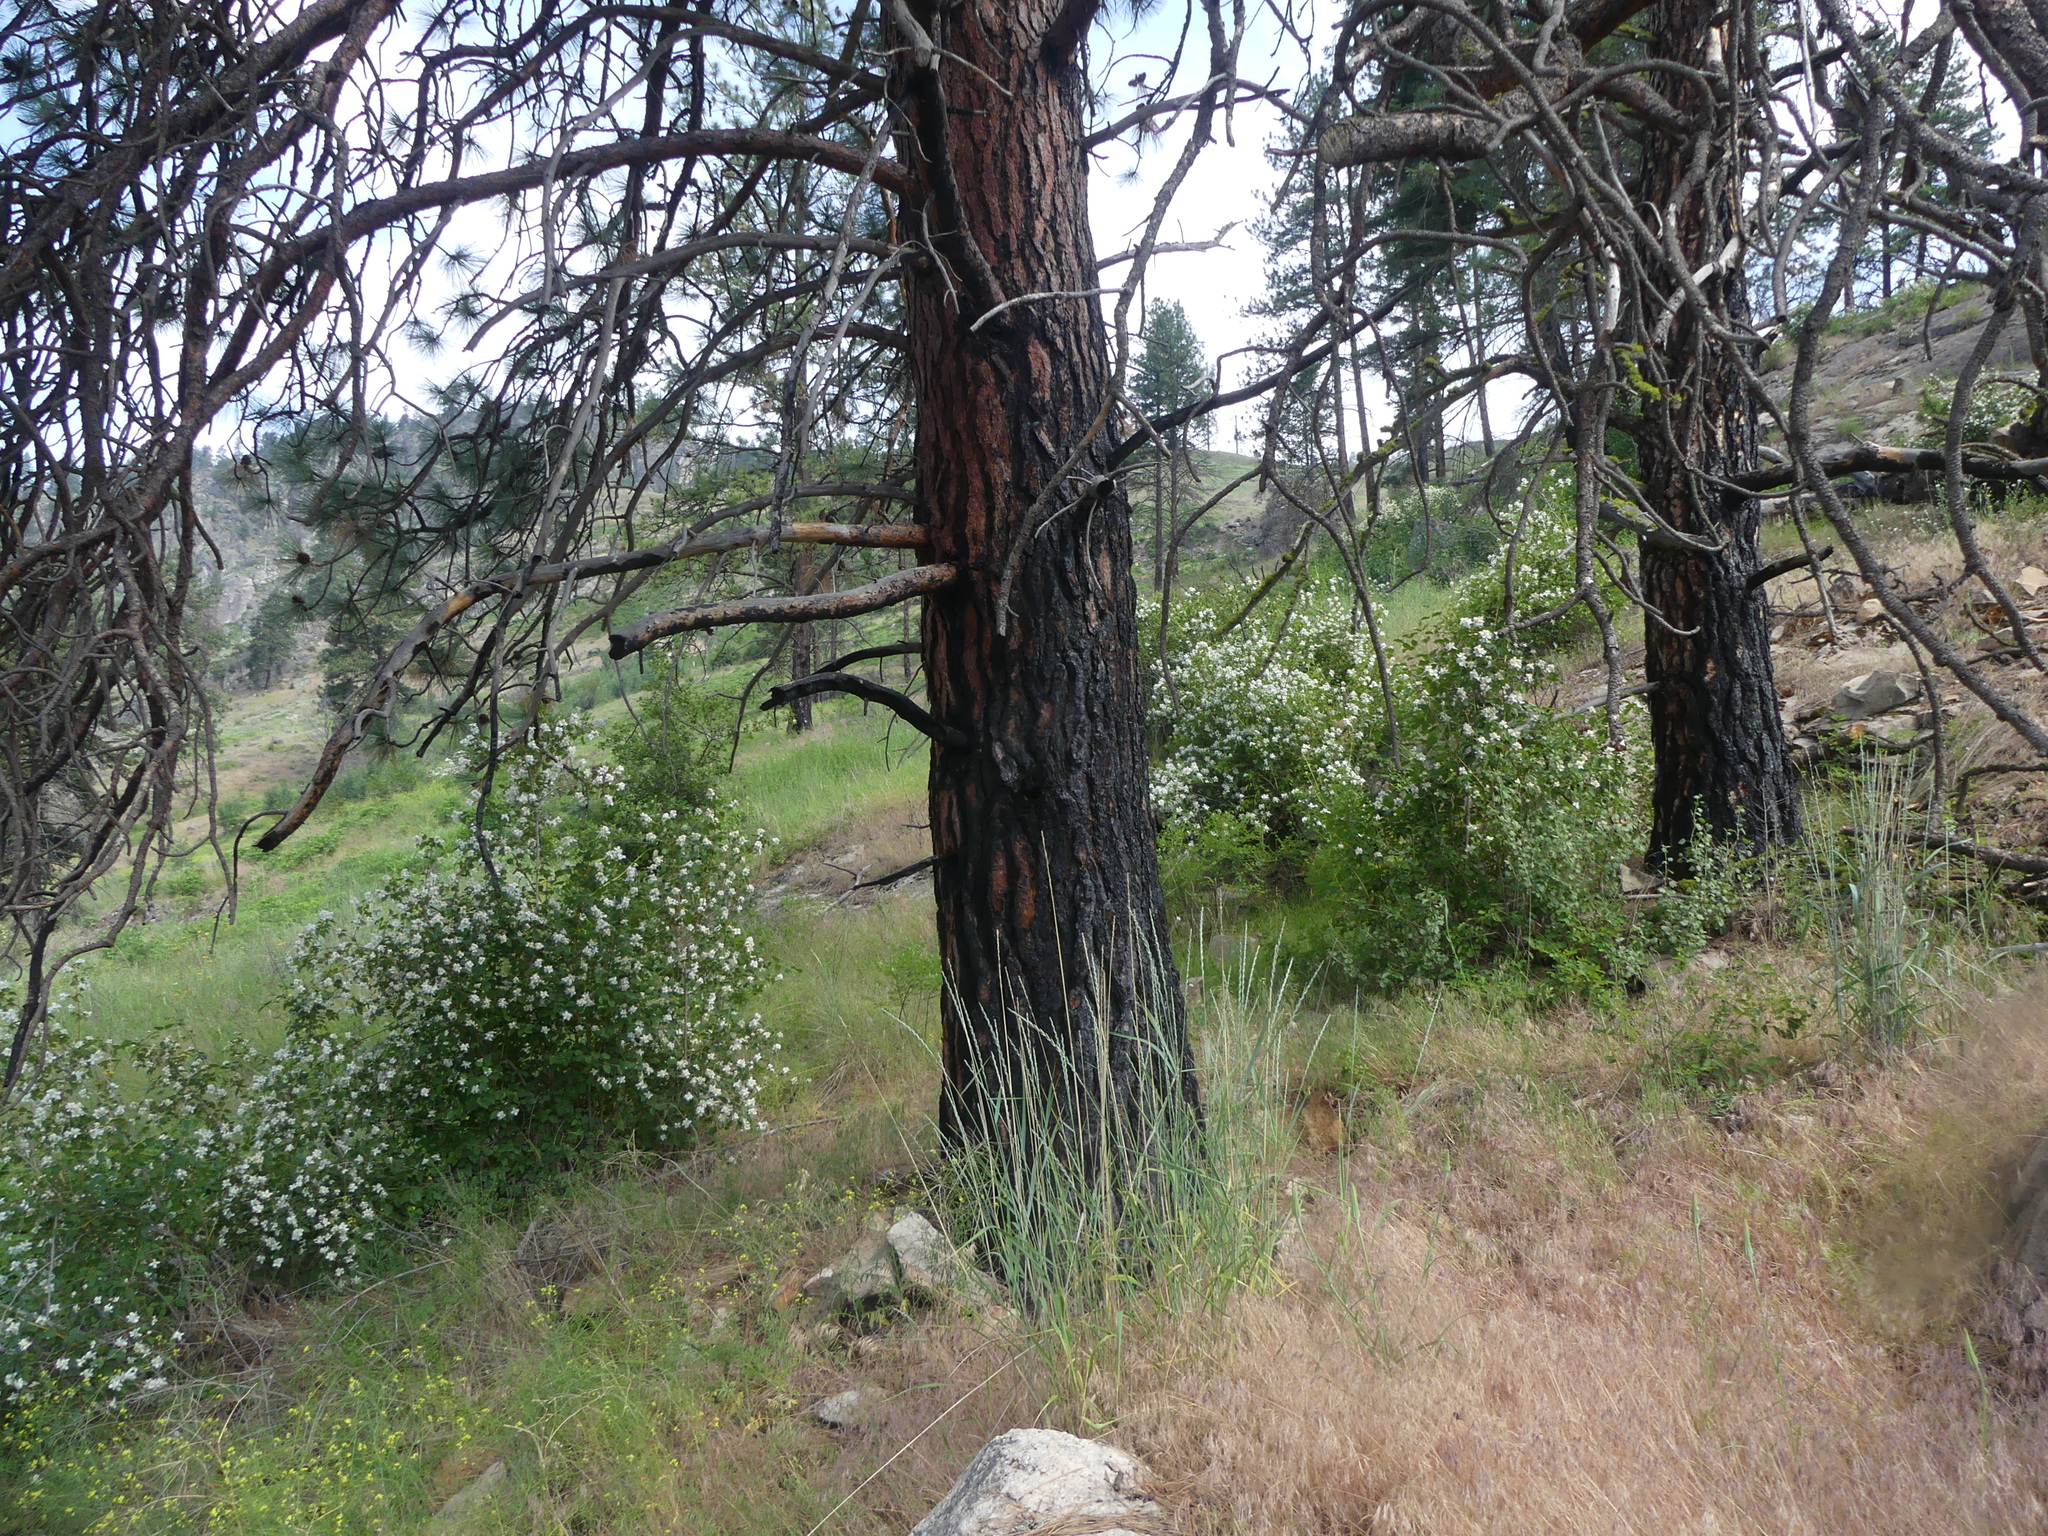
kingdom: Plantae
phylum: Tracheophyta
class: Pinopsida
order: Pinales
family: Pinaceae
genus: Pinus
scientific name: Pinus ponderosa
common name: Western yellow-pine
